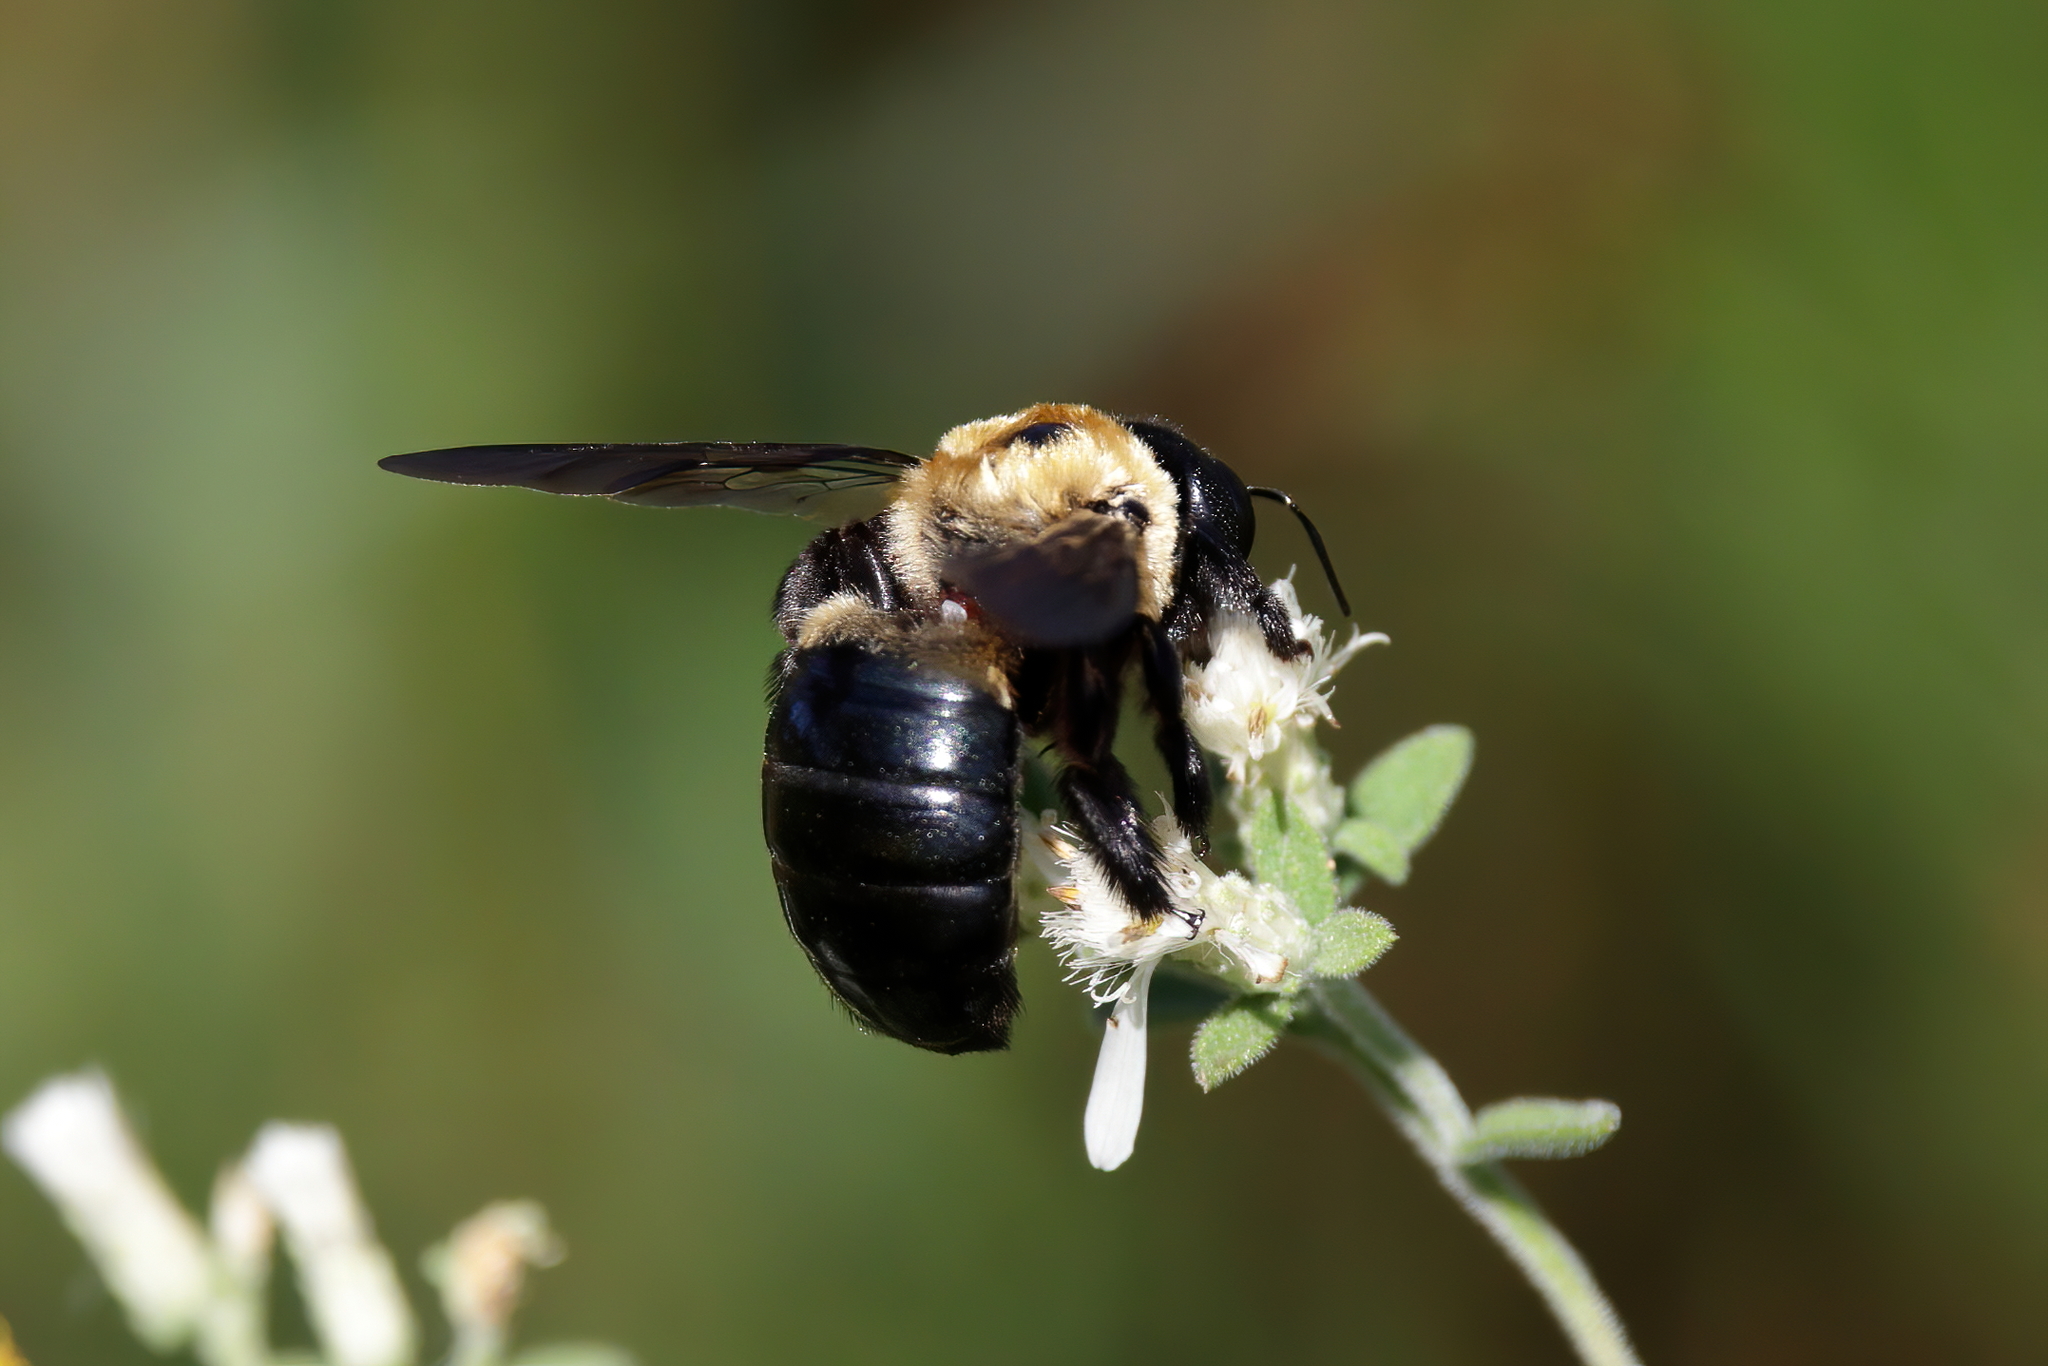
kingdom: Animalia
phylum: Arthropoda
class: Insecta
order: Hymenoptera
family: Apidae
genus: Xylocopa
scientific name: Xylocopa virginica
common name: Carpenter bee
